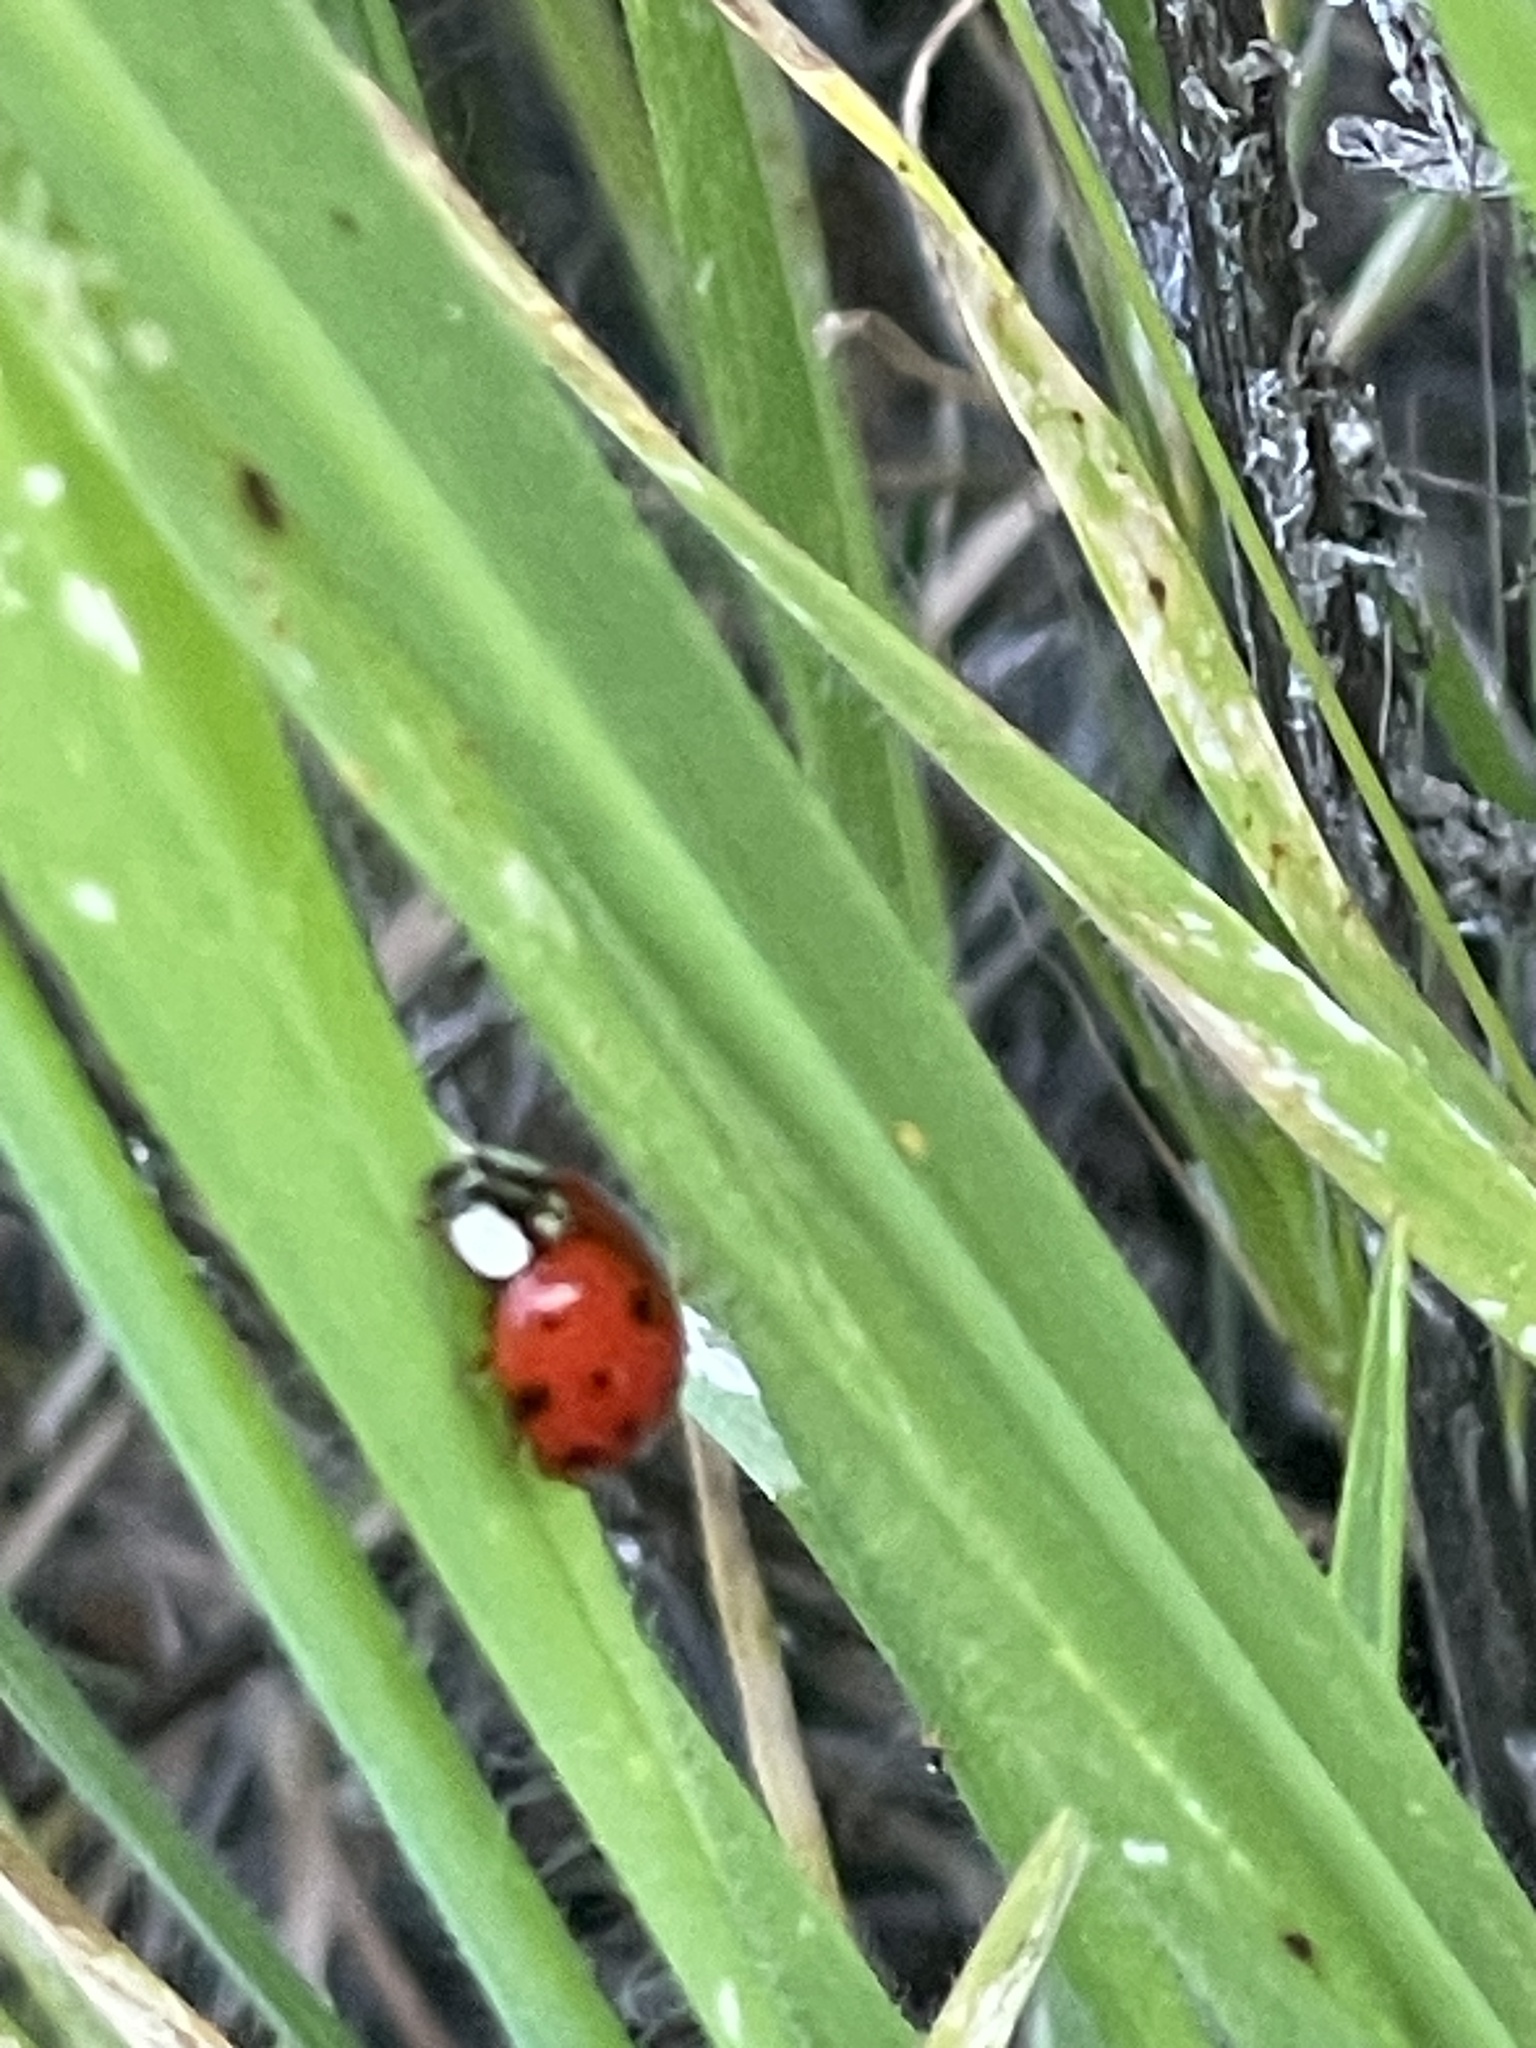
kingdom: Animalia
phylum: Arthropoda
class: Insecta
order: Coleoptera
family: Coccinellidae
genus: Harmonia
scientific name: Harmonia axyridis
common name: Harlequin ladybird
